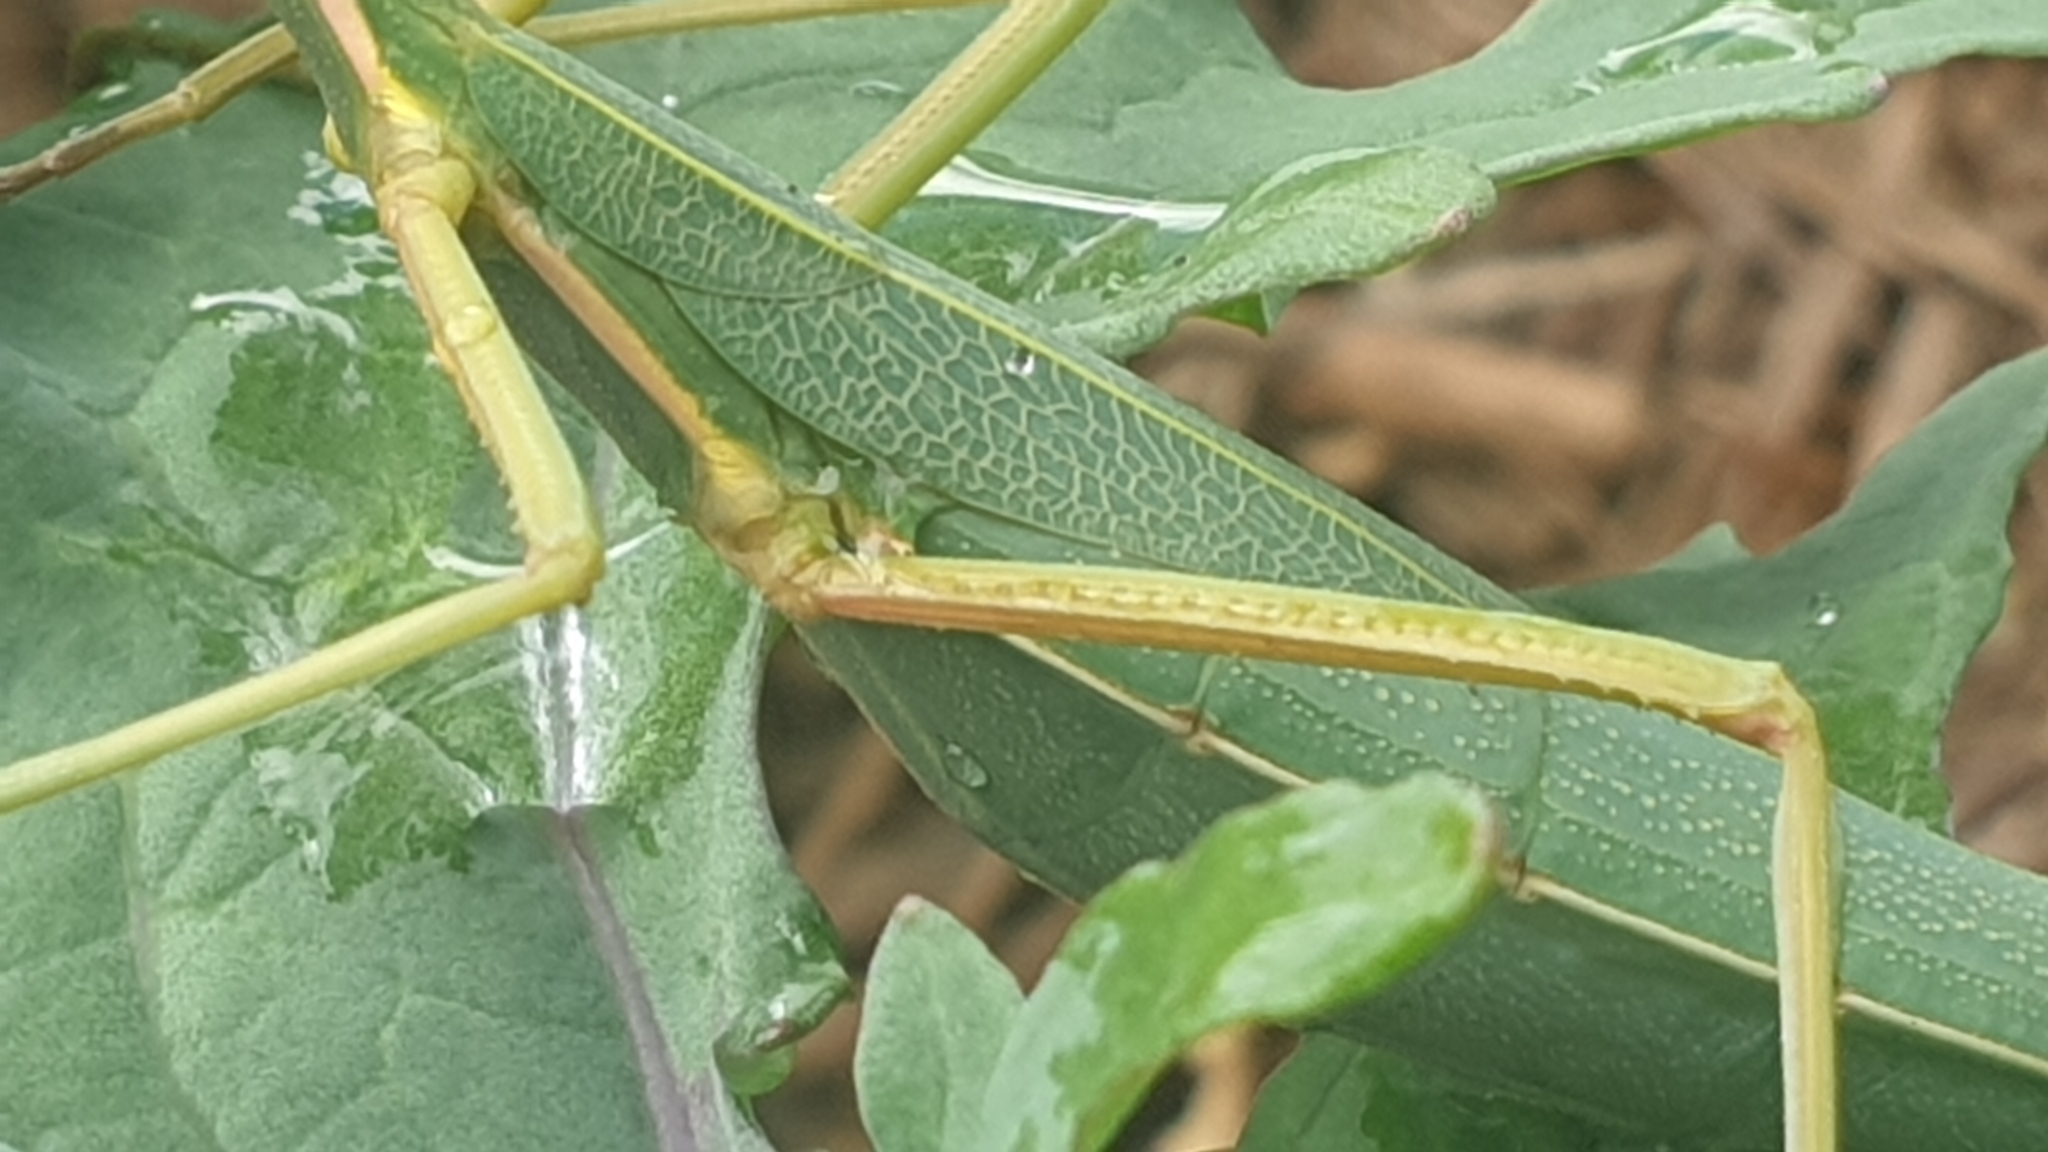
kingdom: Animalia
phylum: Arthropoda
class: Insecta
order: Phasmida
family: Phasmatidae
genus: Didymuria
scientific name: Didymuria violescens
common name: Spur-legged stick-insect
